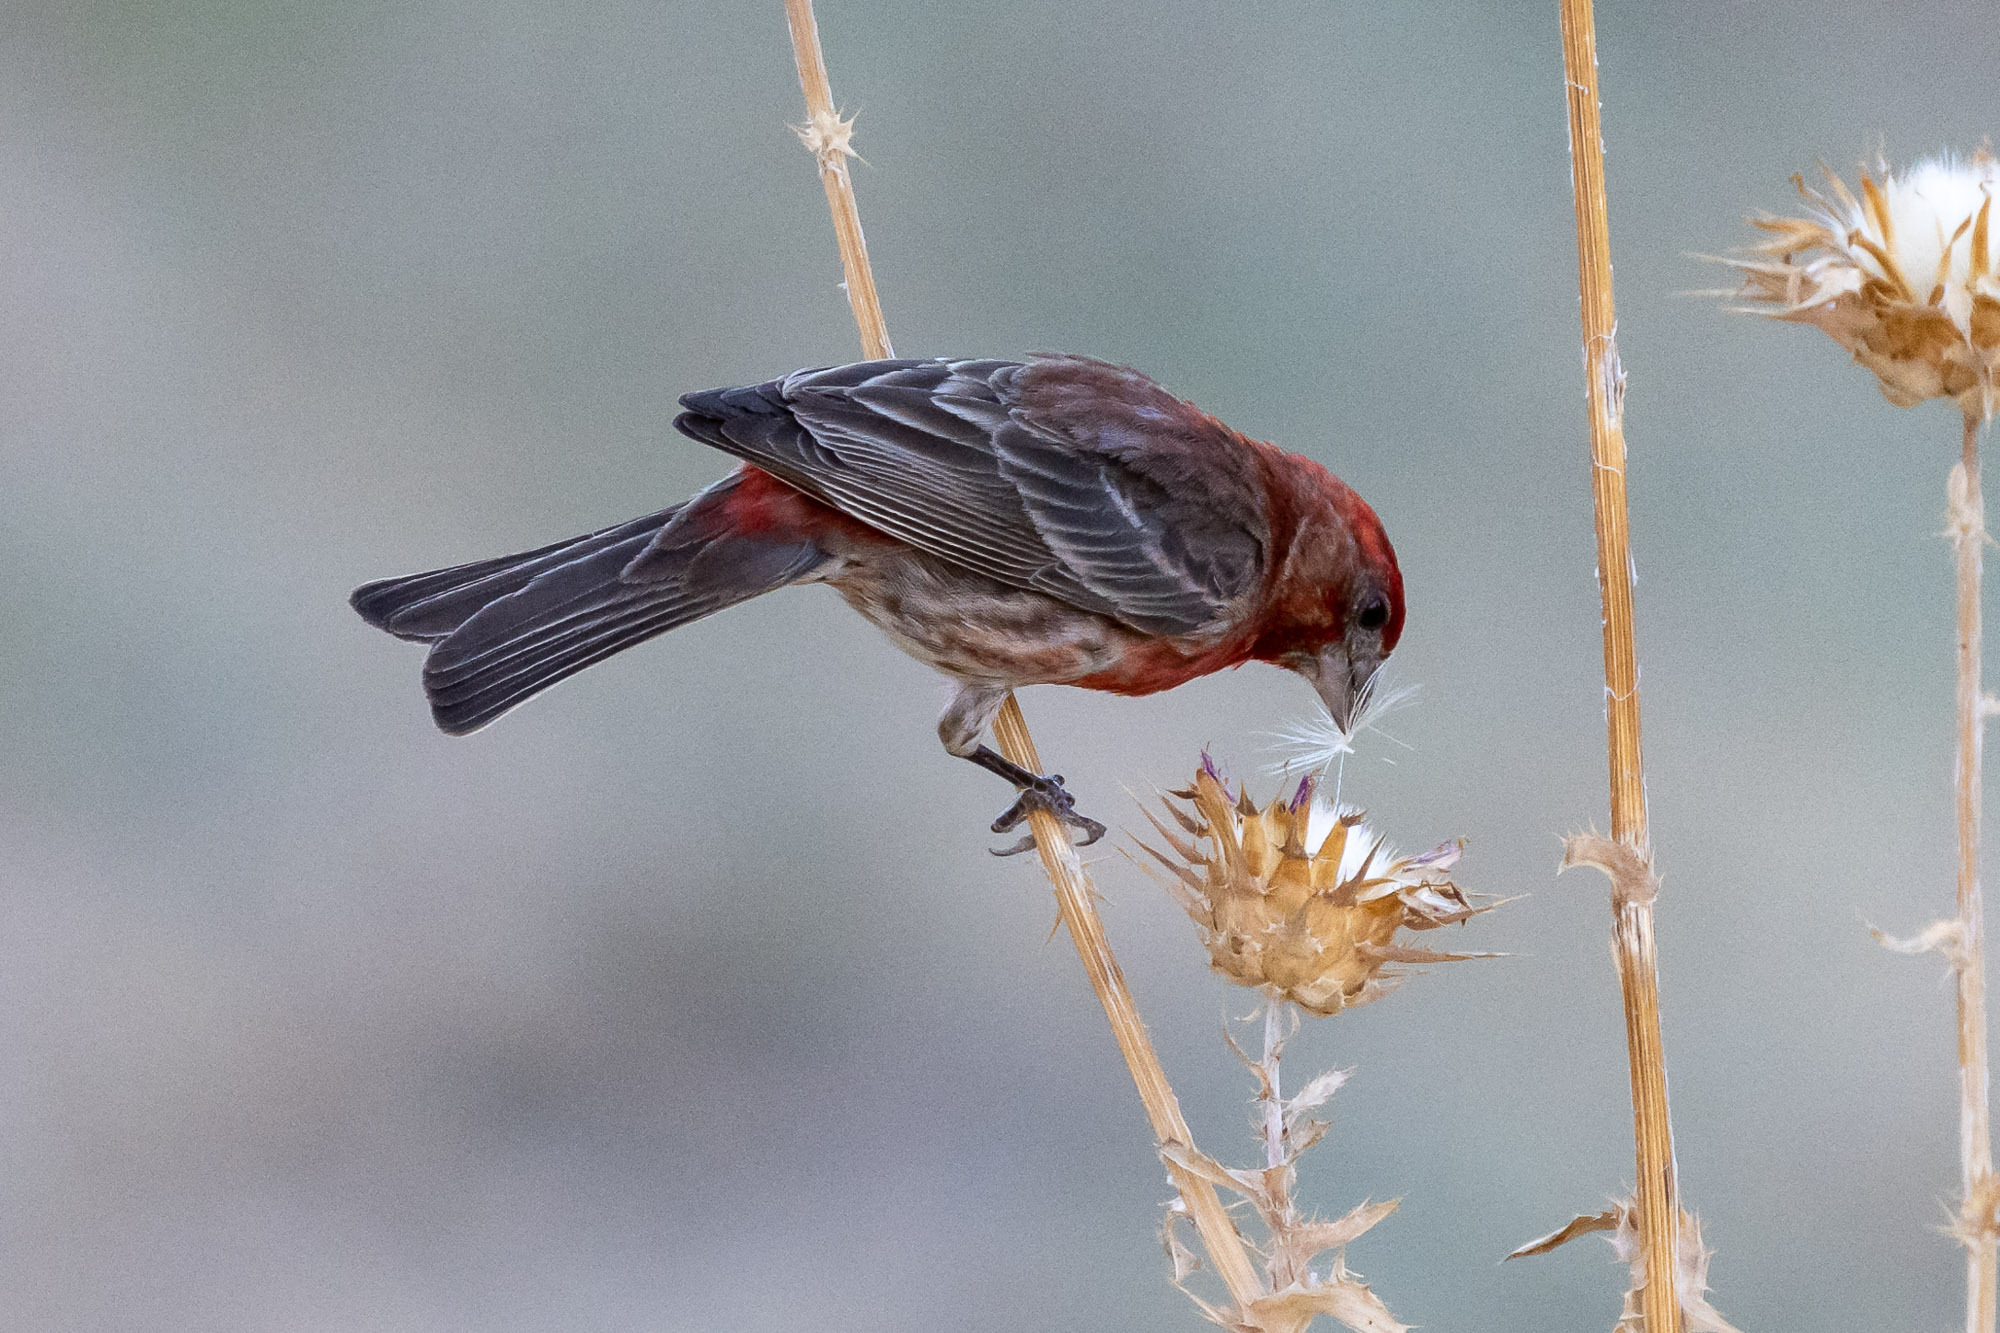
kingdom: Animalia
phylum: Chordata
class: Aves
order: Passeriformes
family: Fringillidae
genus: Haemorhous
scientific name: Haemorhous mexicanus
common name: House finch
